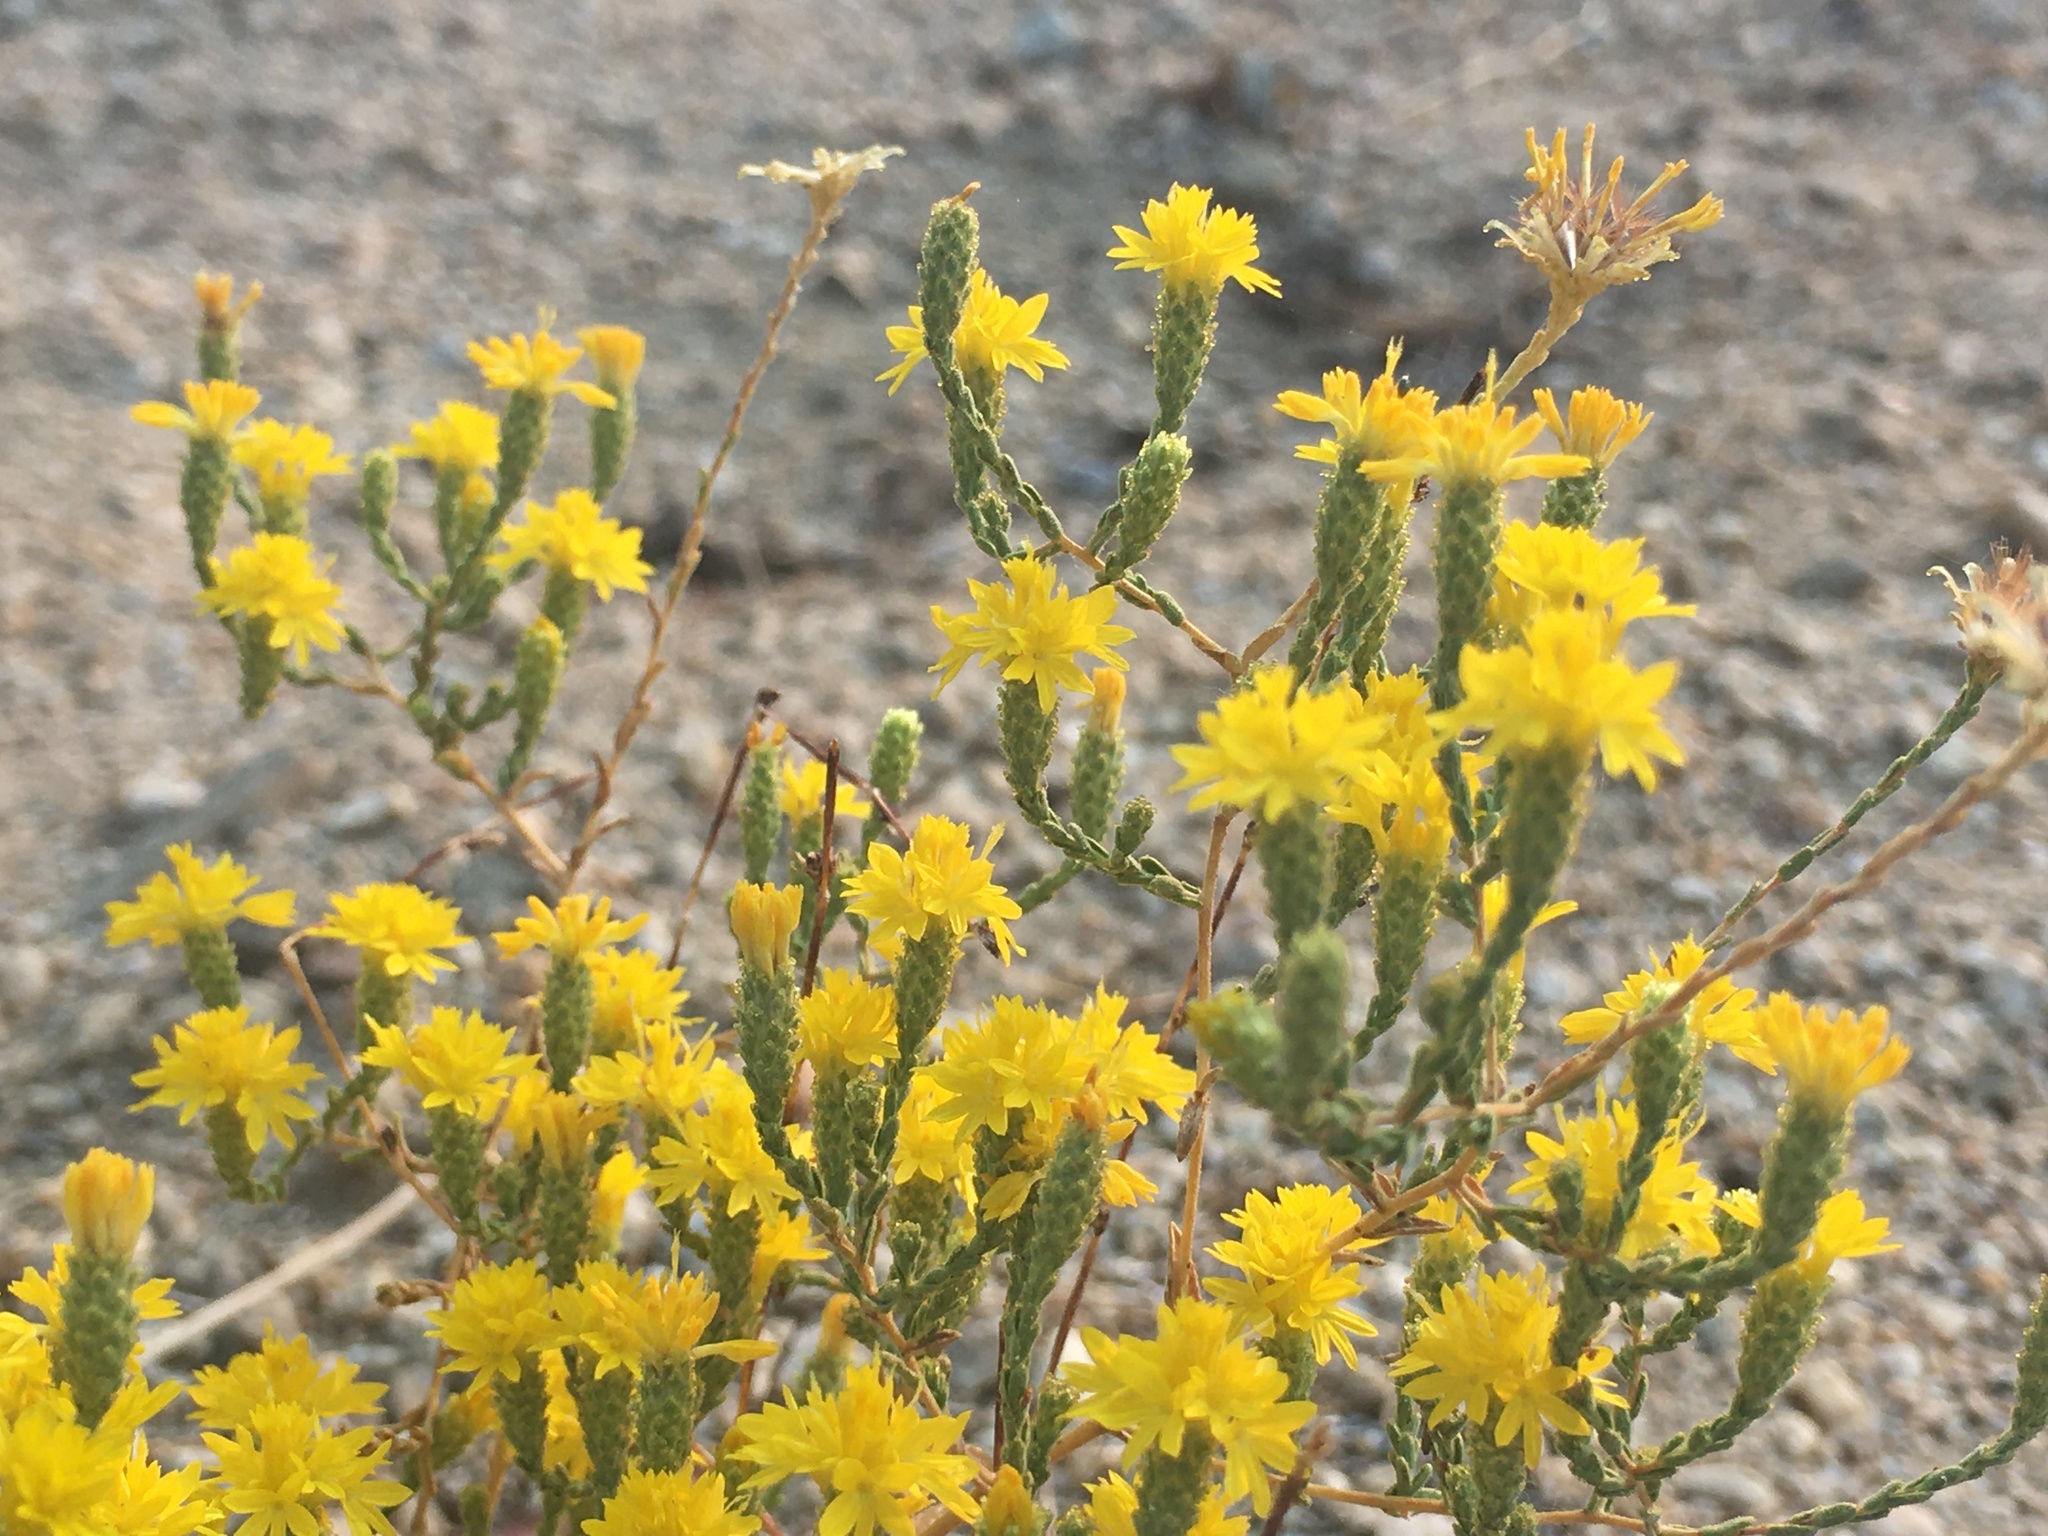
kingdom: Plantae
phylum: Tracheophyta
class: Magnoliopsida
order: Asterales
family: Asteraceae
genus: Lessingia
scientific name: Lessingia glandulifera
